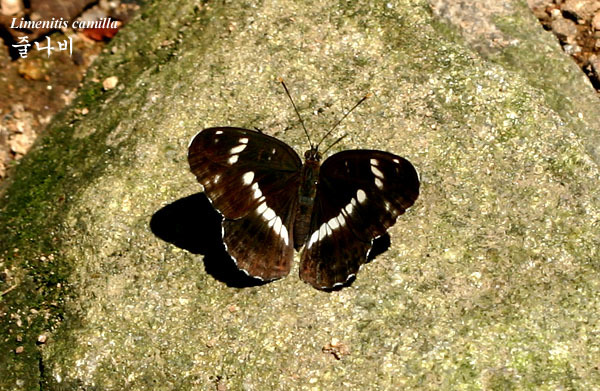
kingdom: Animalia
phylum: Arthropoda
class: Insecta
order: Lepidoptera
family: Nymphalidae
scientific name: Nymphalidae
